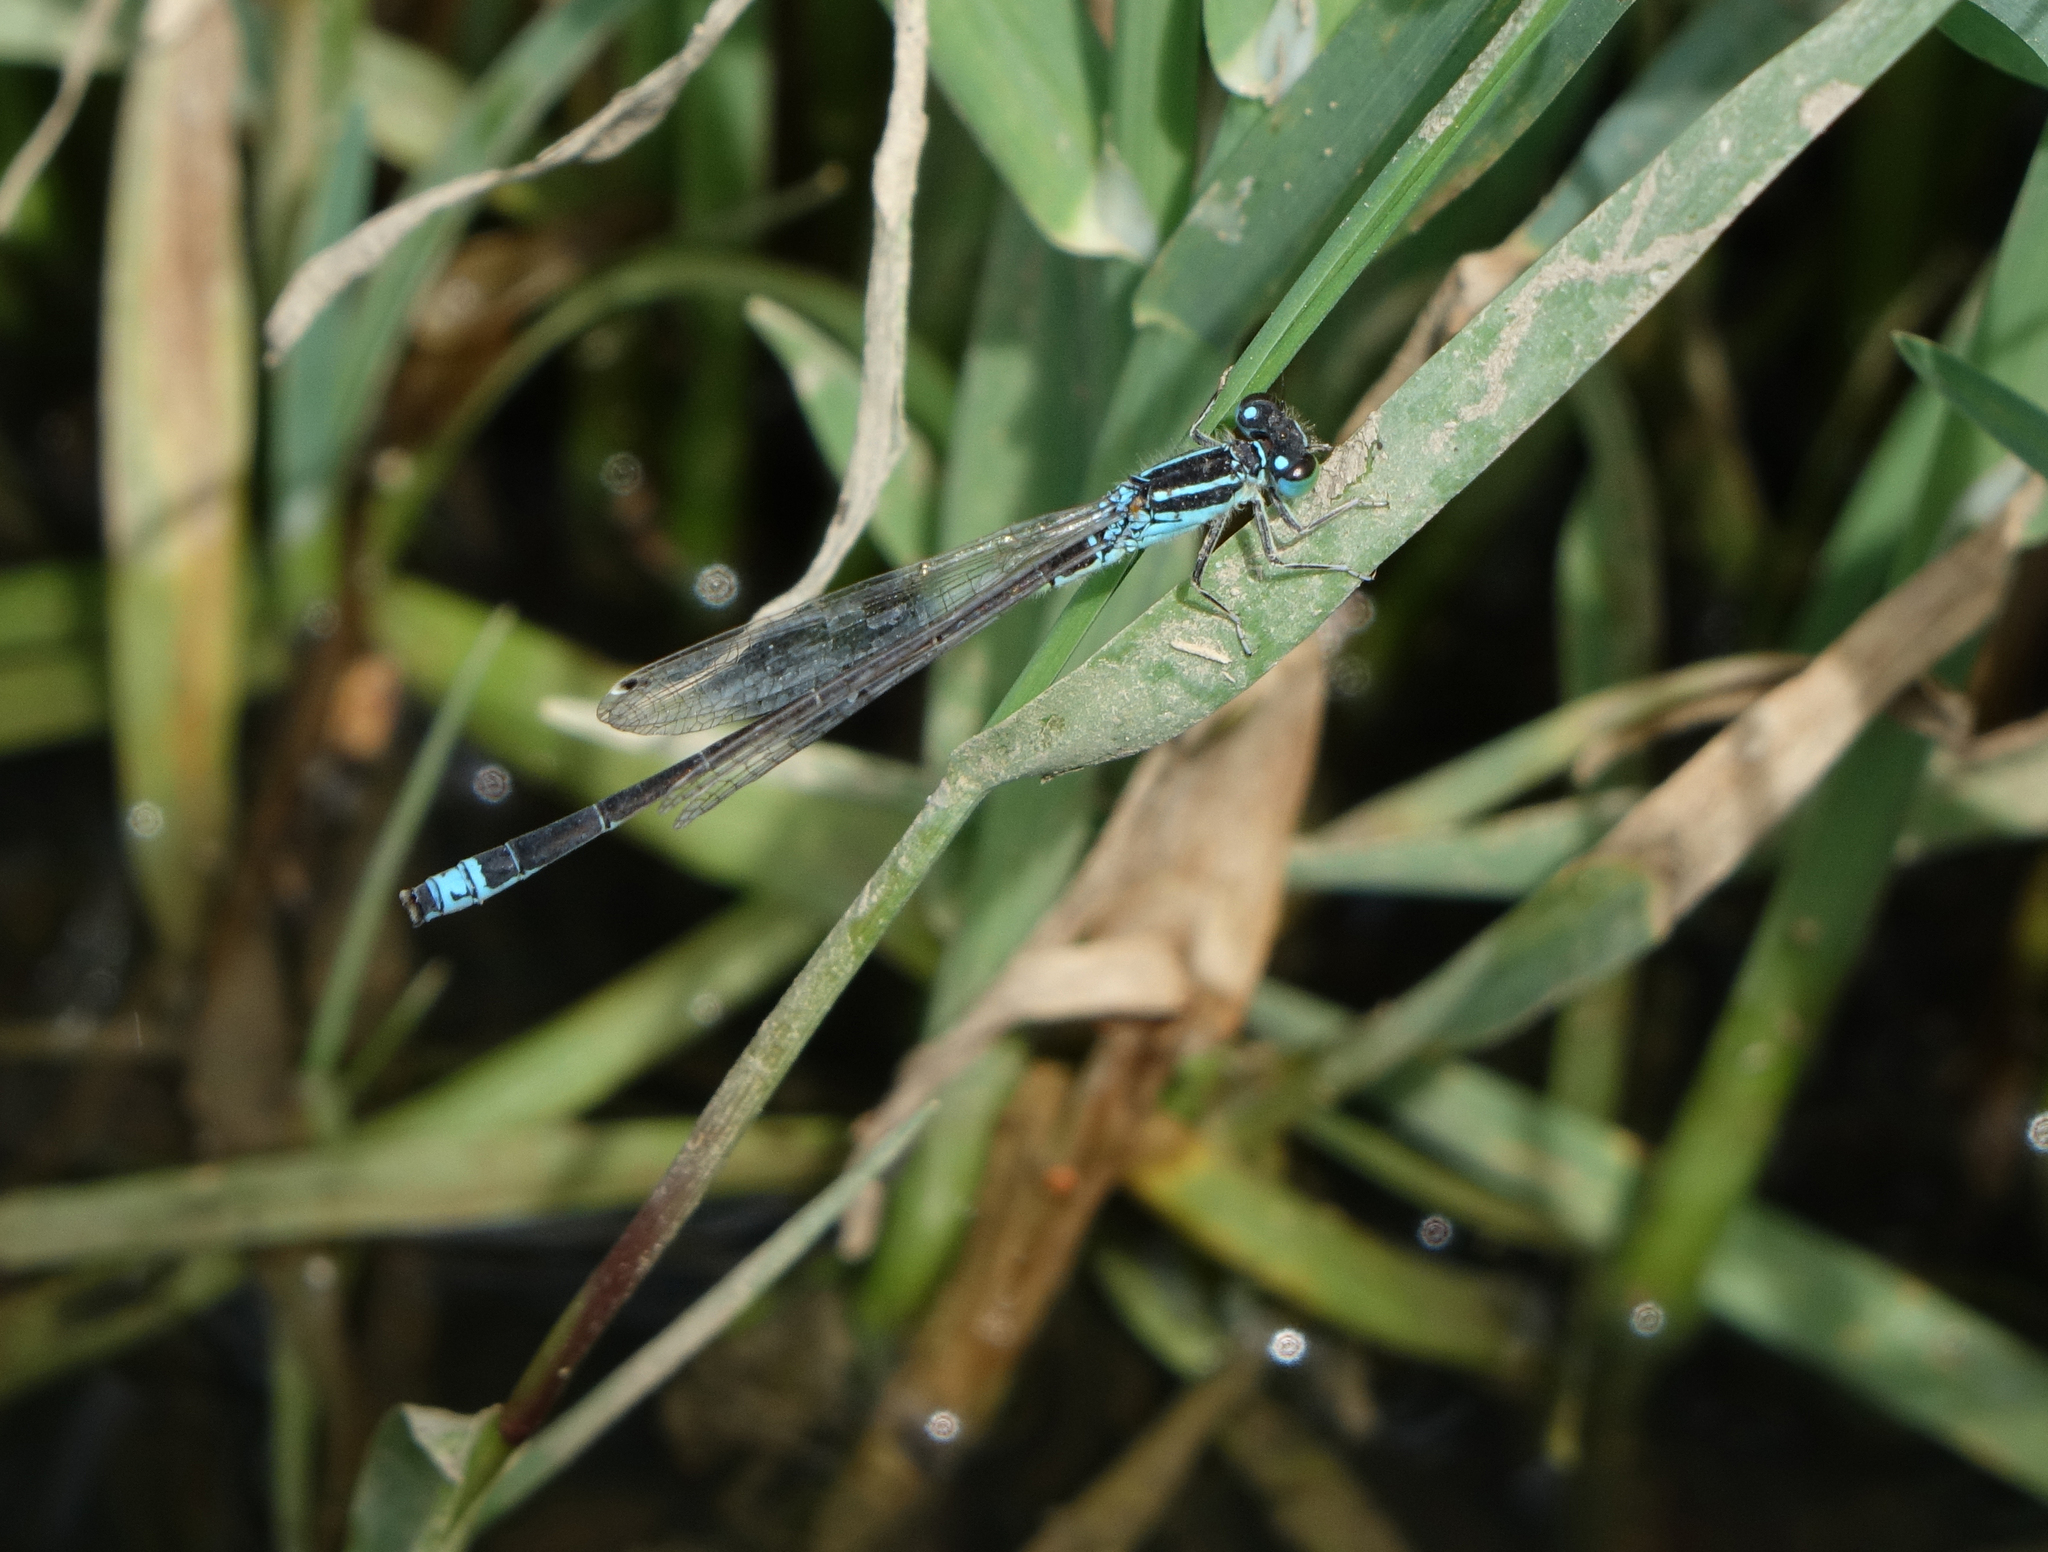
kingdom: Animalia
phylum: Arthropoda
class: Insecta
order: Odonata
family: Coenagrionidae
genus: Ischnura
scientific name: Ischnura pumilio
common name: Scarce blue-tailed damselfly
